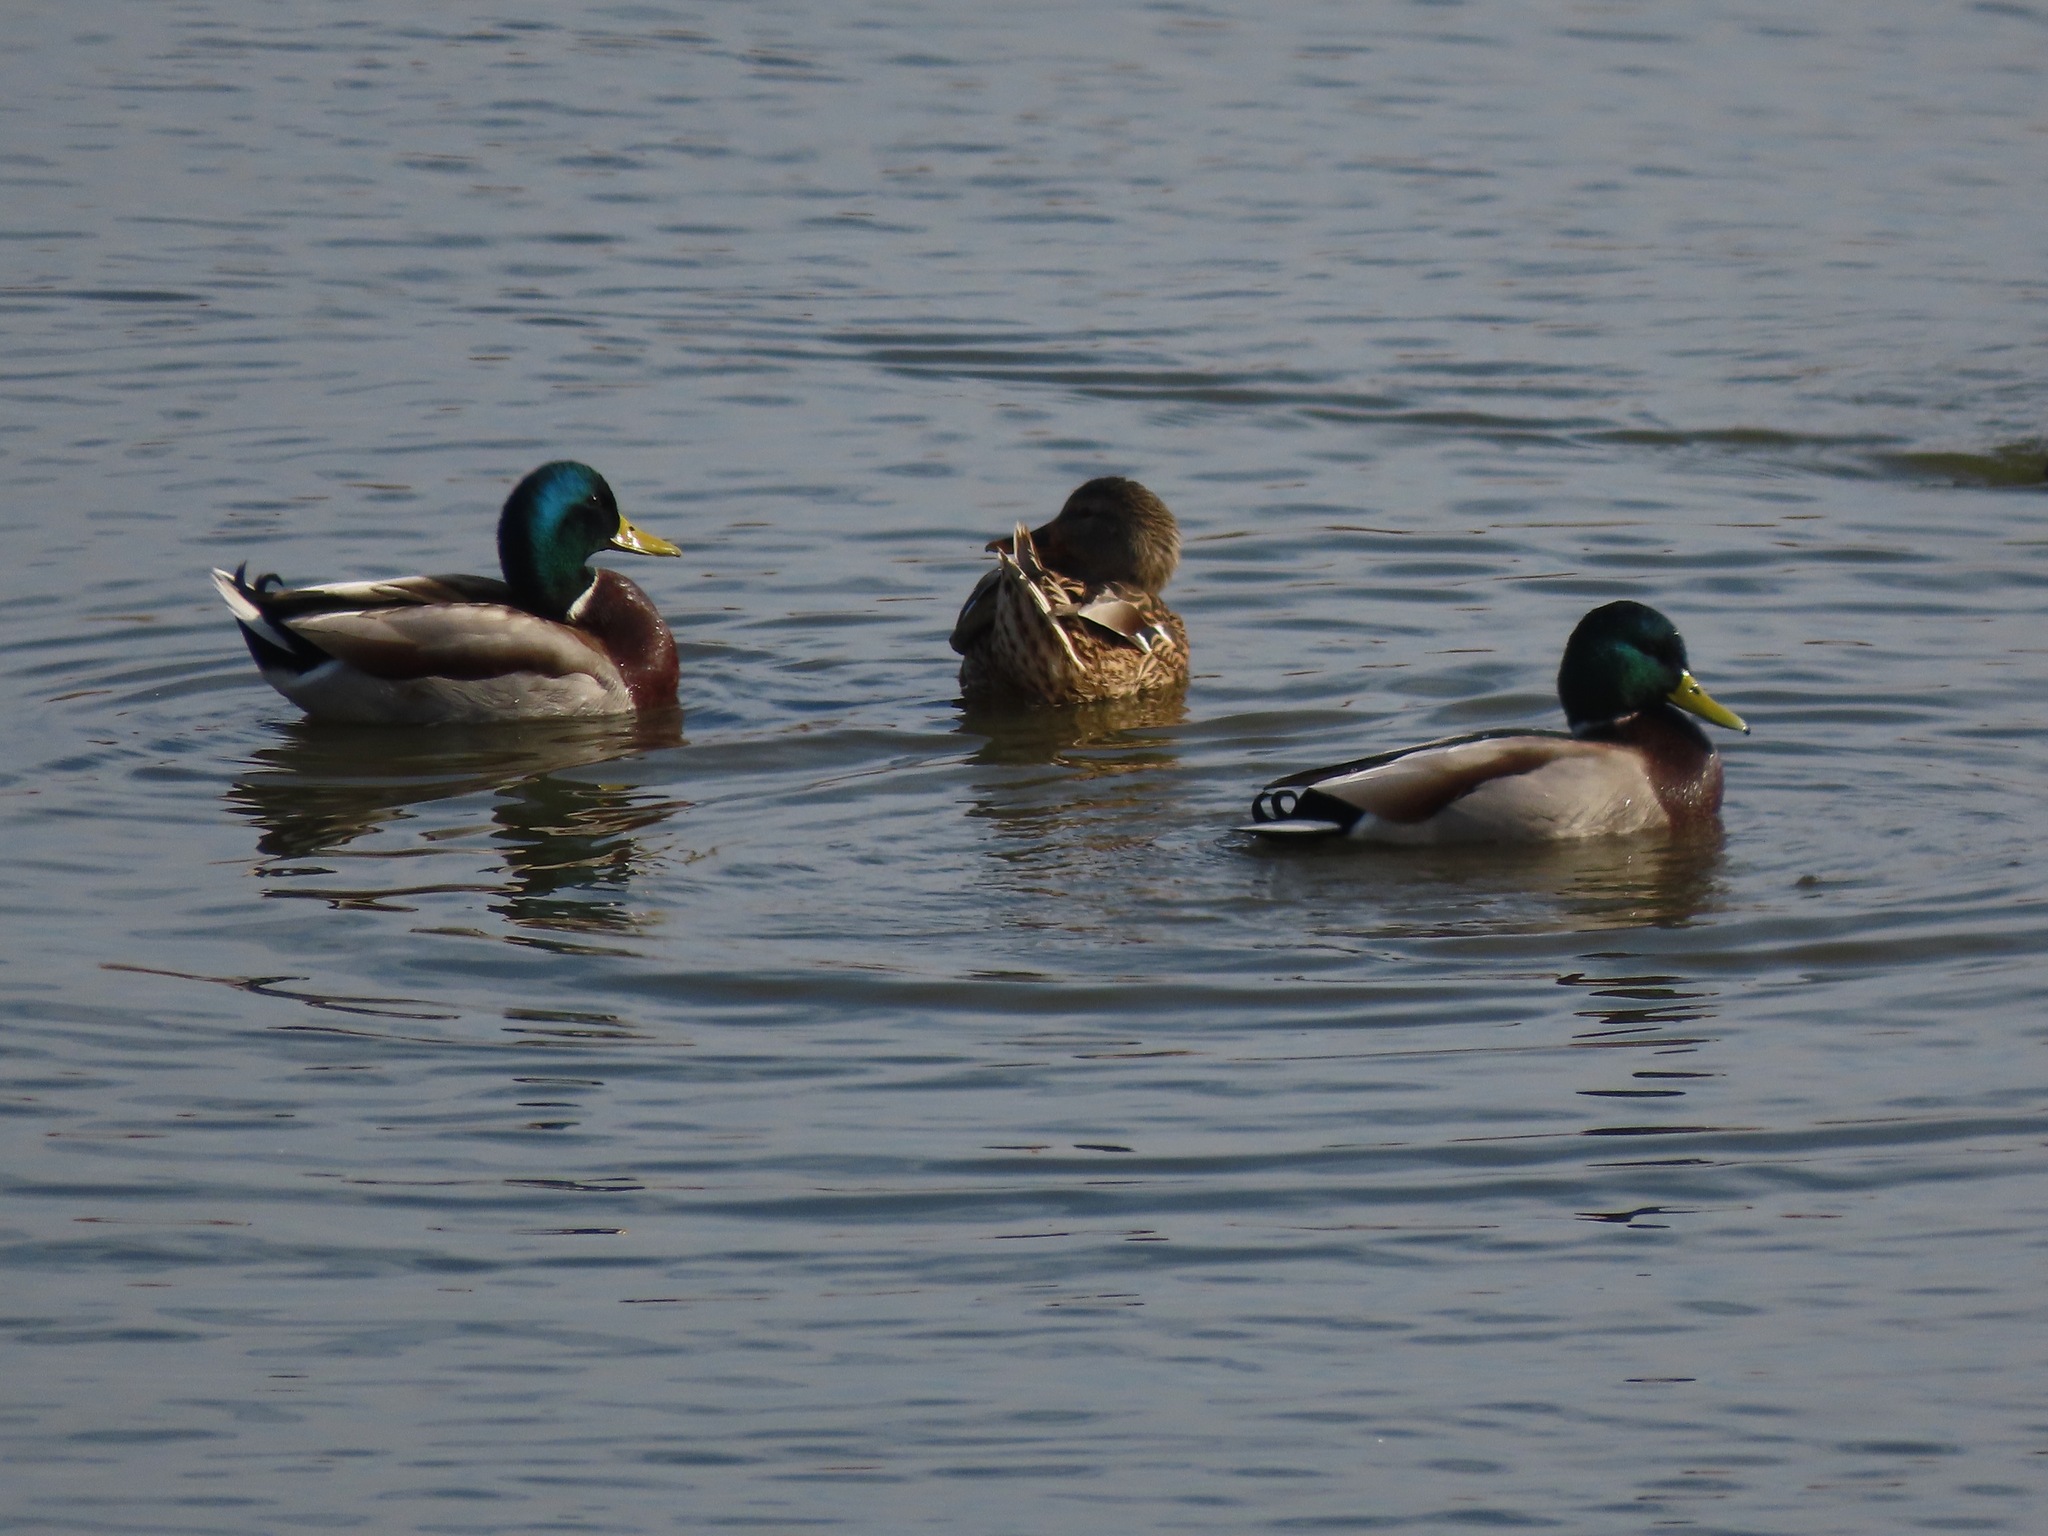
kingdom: Animalia
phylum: Chordata
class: Aves
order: Anseriformes
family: Anatidae
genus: Anas
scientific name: Anas platyrhynchos
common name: Mallard
